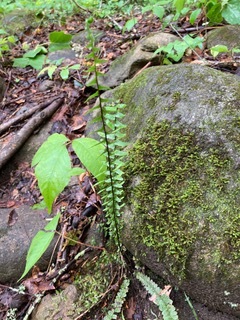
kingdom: Plantae
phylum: Tracheophyta
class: Polypodiopsida
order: Polypodiales
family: Aspleniaceae
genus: Asplenium
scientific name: Asplenium platyneuron
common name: Ebony spleenwort
